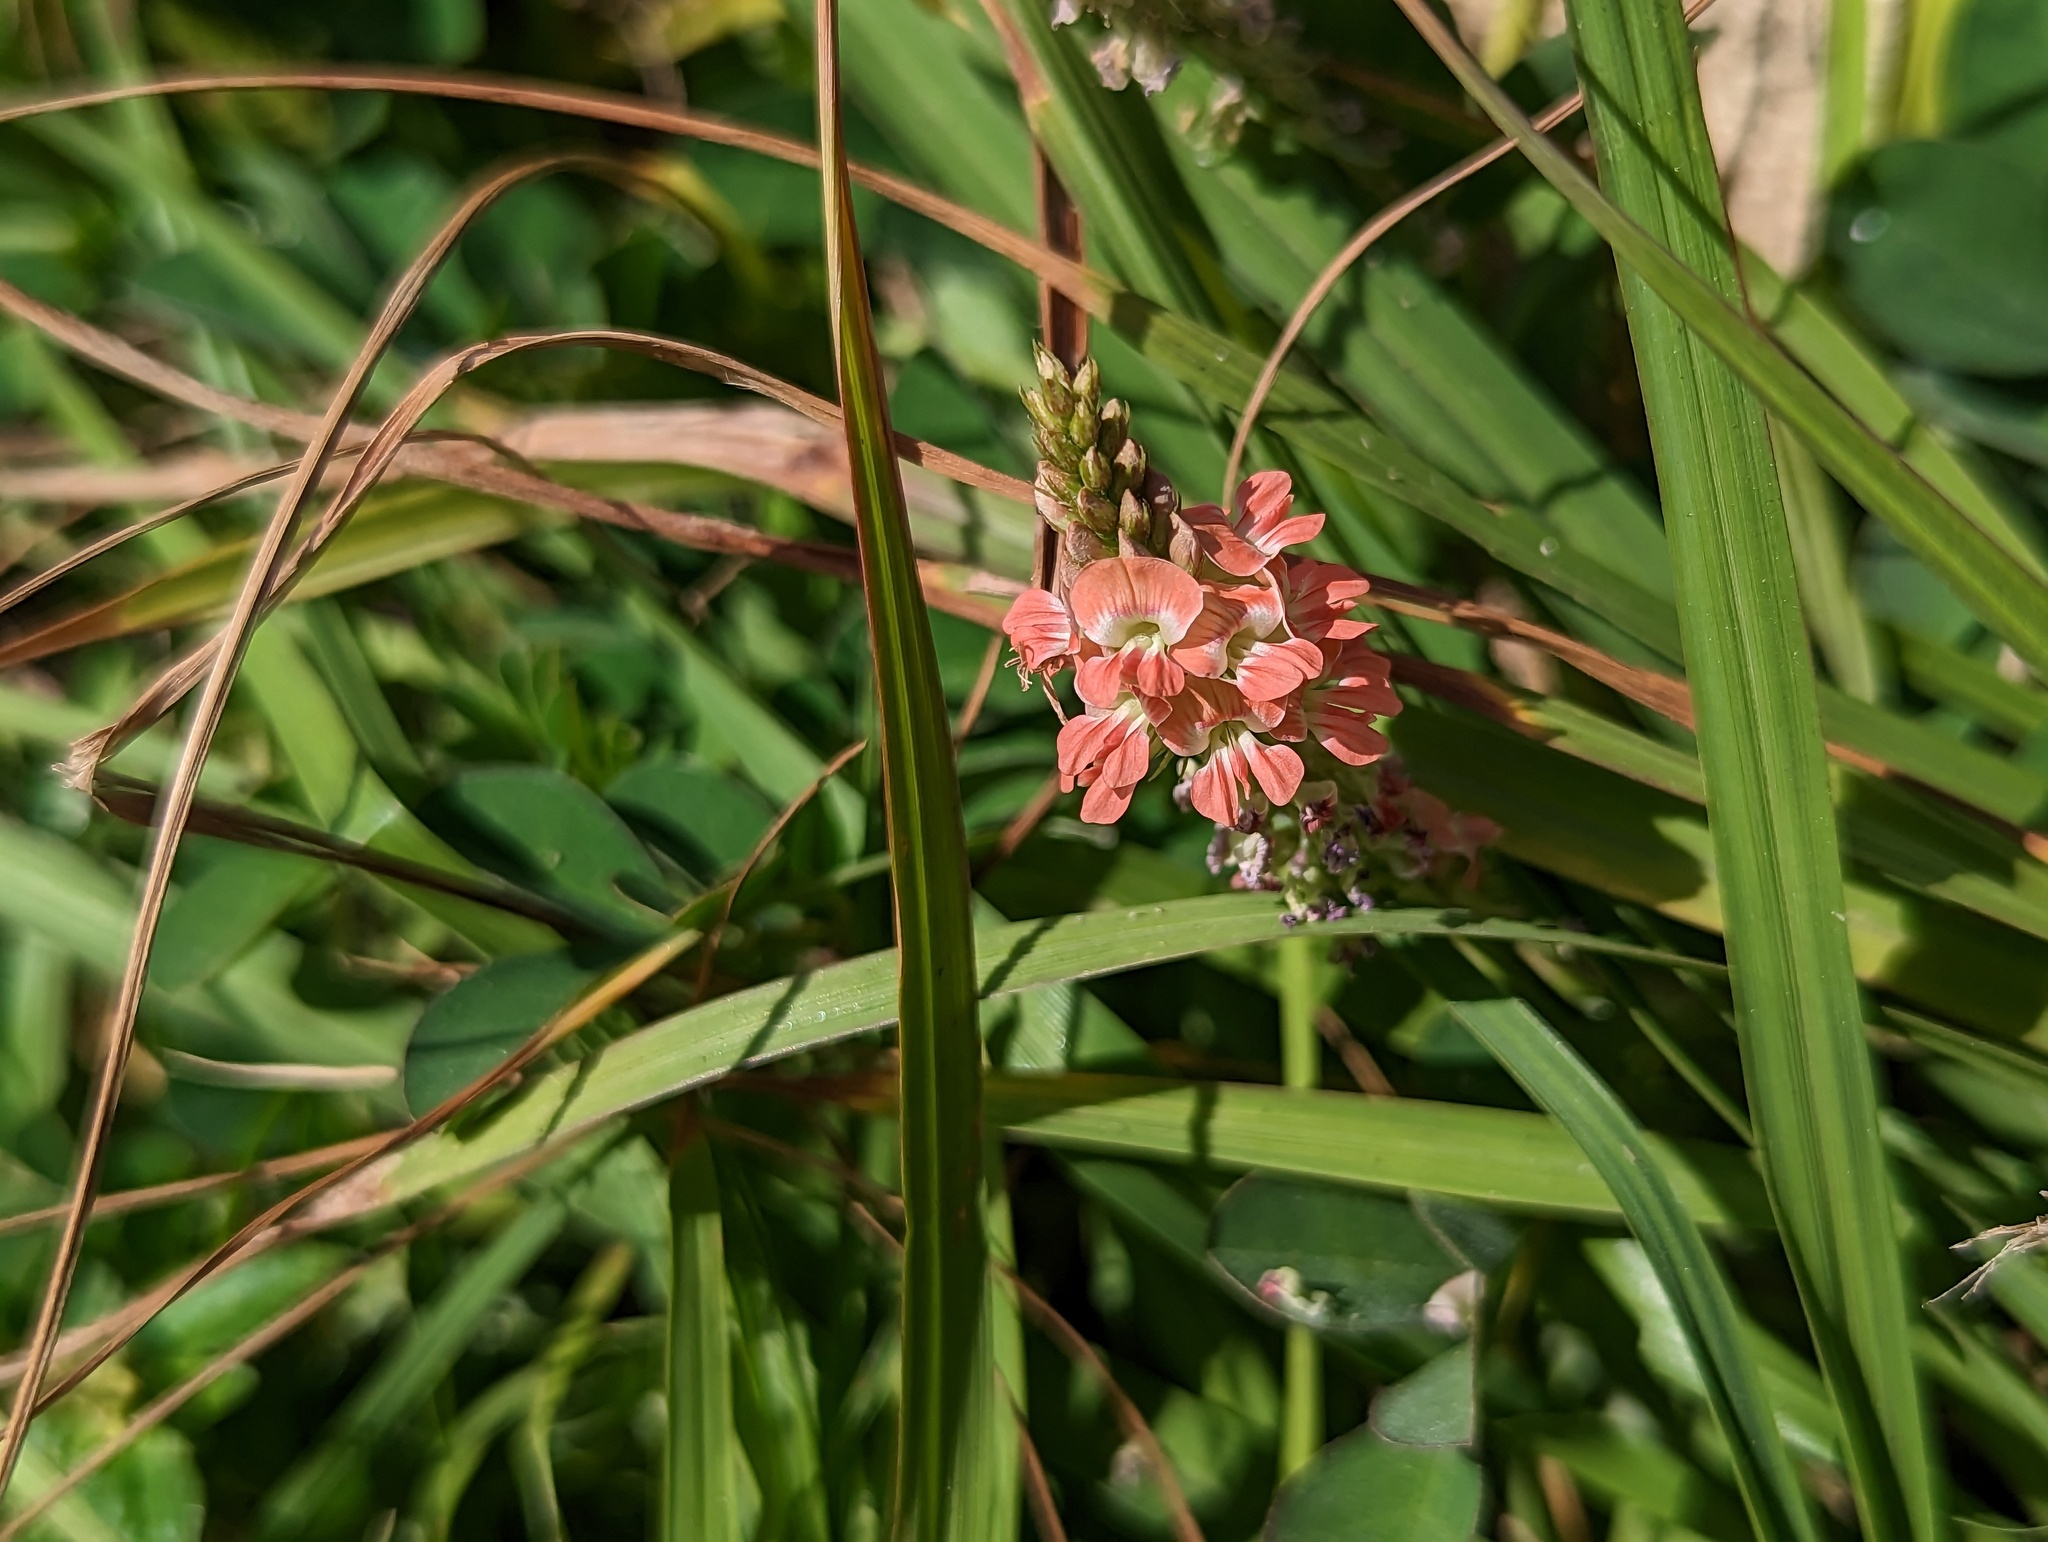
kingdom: Plantae
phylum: Tracheophyta
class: Magnoliopsida
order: Fabales
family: Fabaceae
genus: Indigofera
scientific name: Indigofera spicata
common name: Creeping indigo
